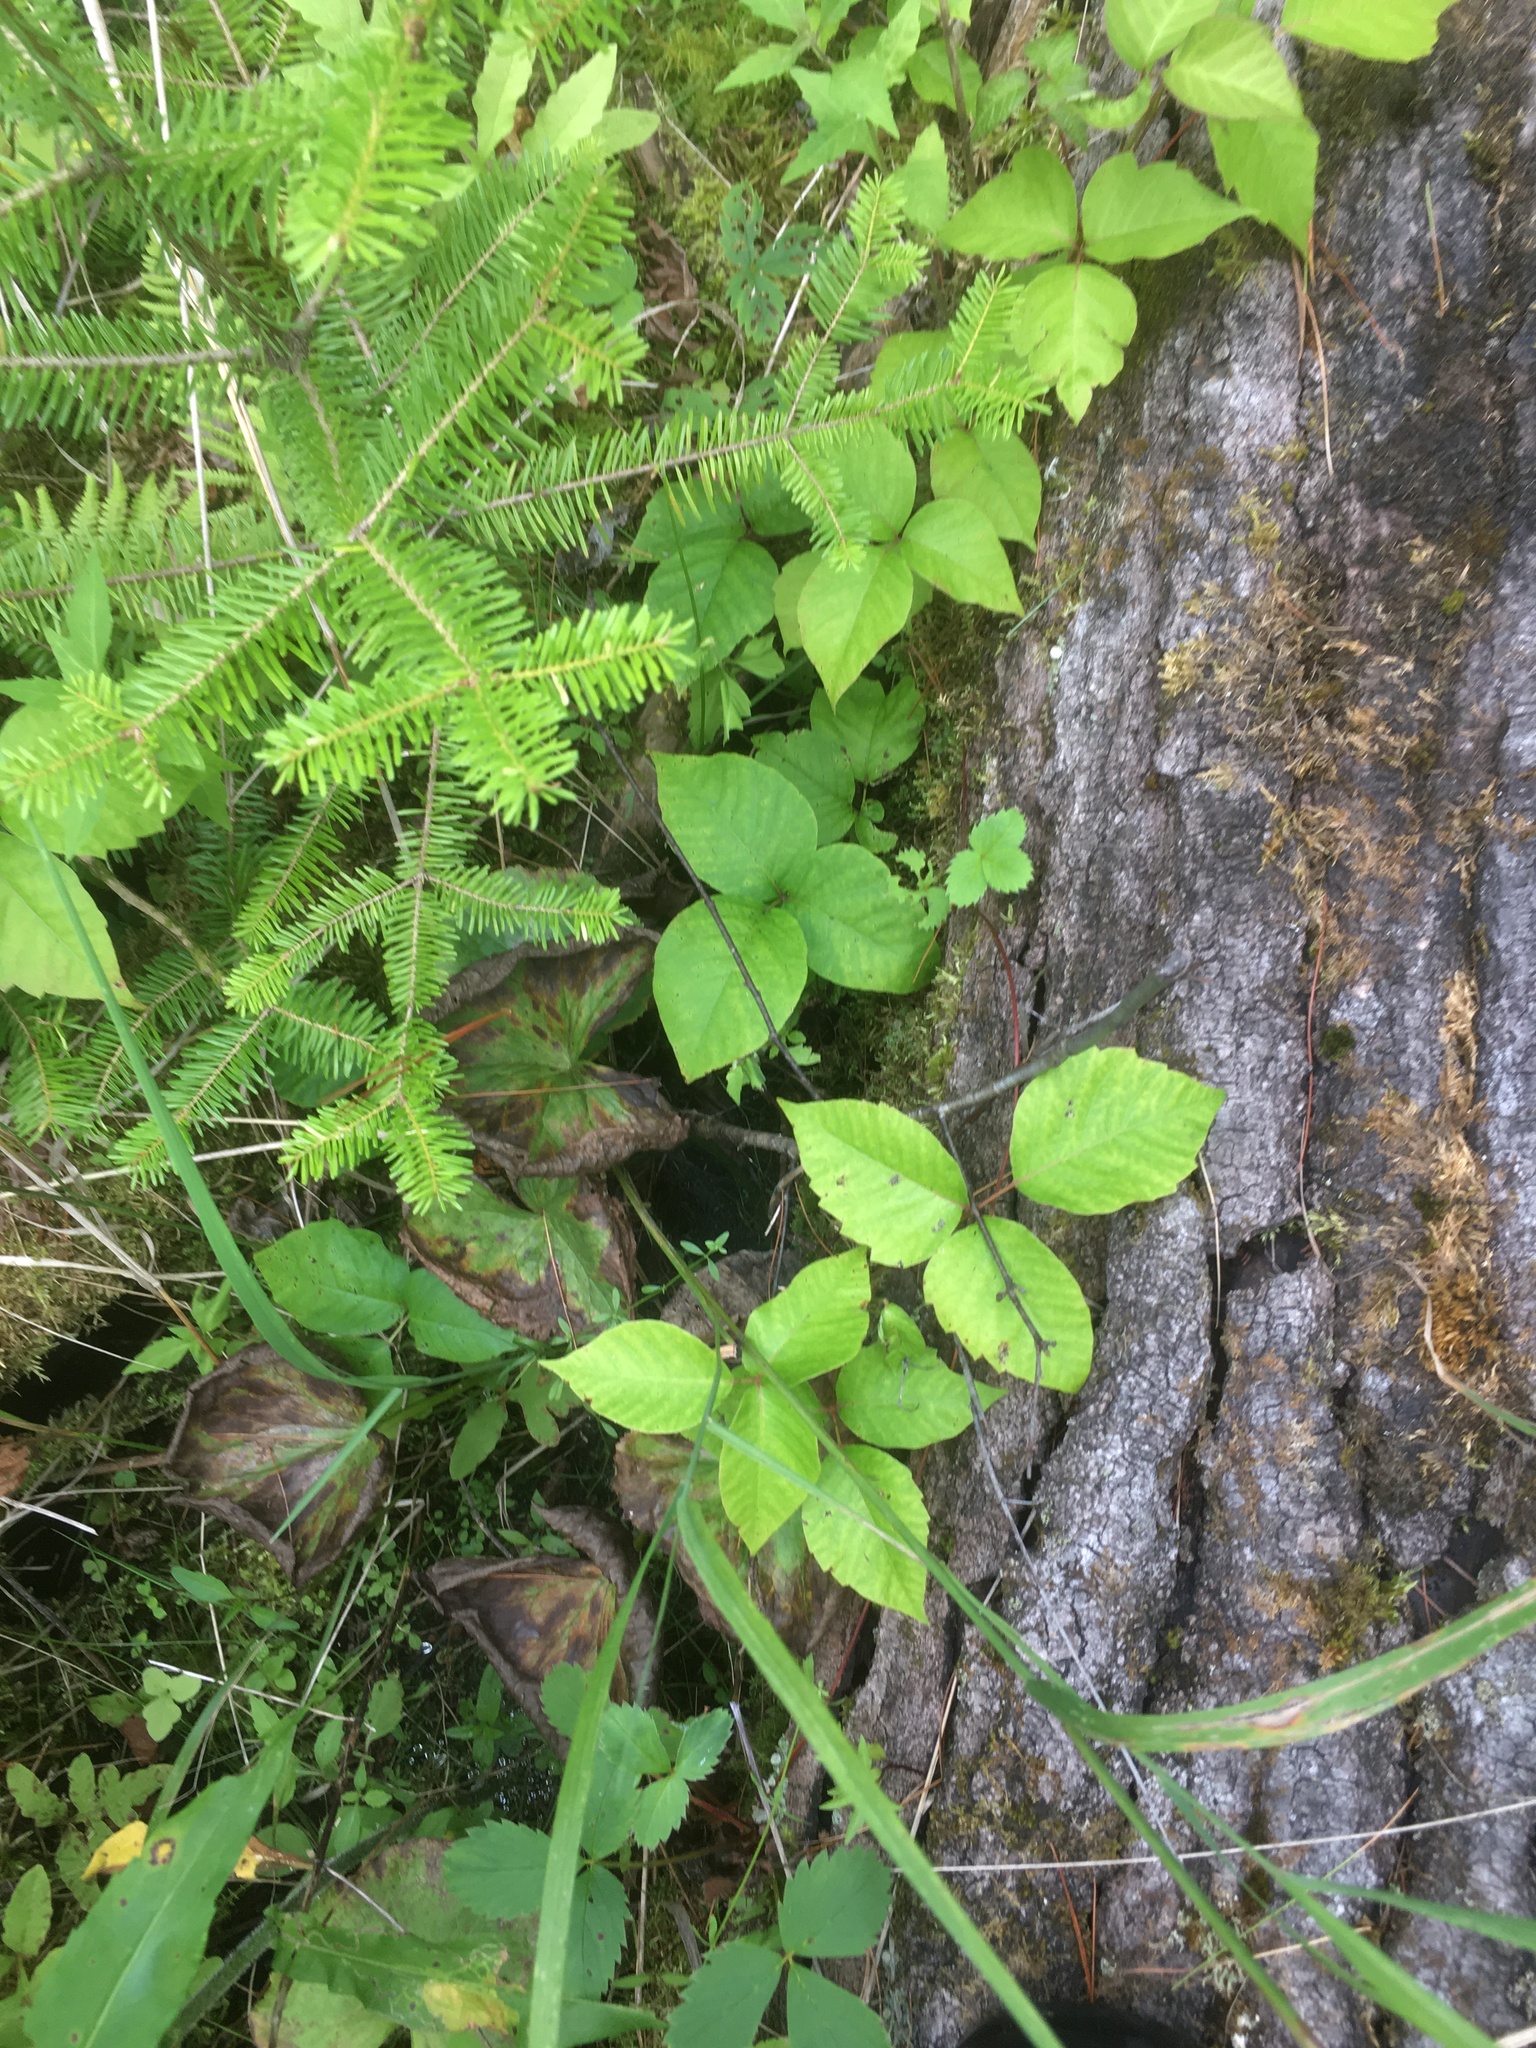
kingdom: Plantae
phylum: Tracheophyta
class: Magnoliopsida
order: Sapindales
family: Anacardiaceae
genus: Toxicodendron
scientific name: Toxicodendron rydbergii
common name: Rydberg's poison-ivy
